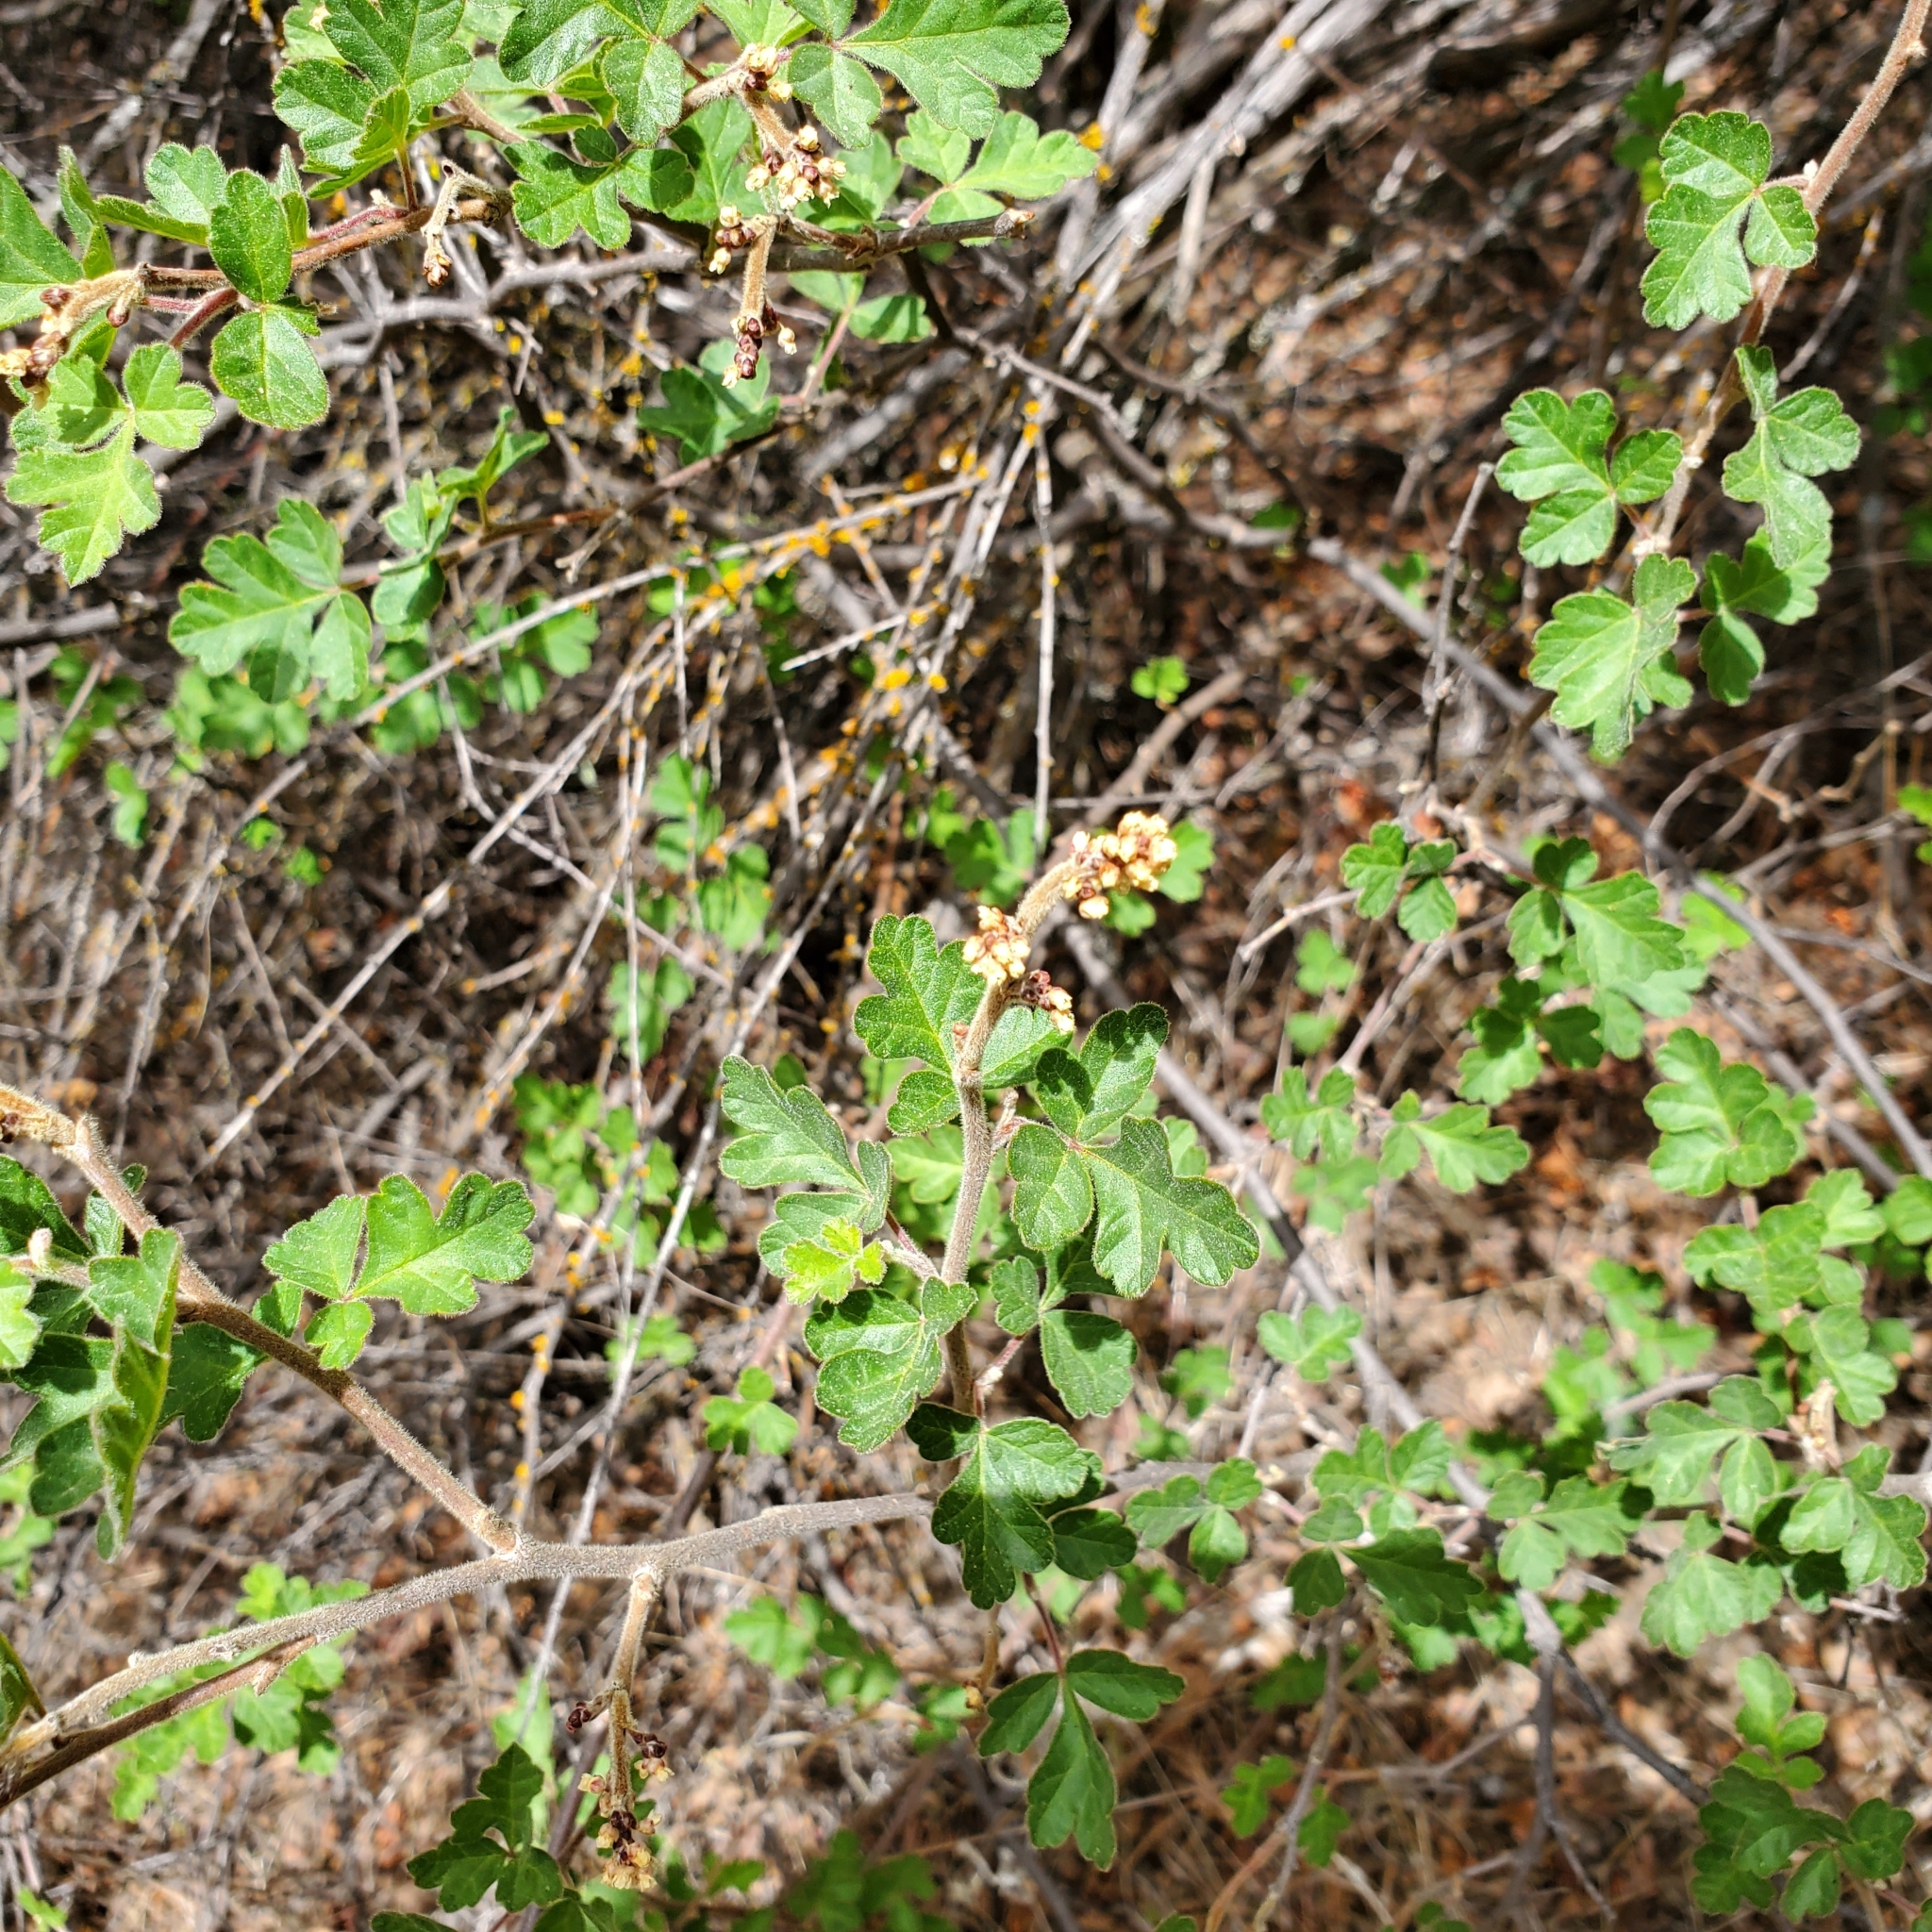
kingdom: Plantae
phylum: Tracheophyta
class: Magnoliopsida
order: Sapindales
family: Anacardiaceae
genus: Rhus
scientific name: Rhus aromatica
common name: Aromatic sumac
